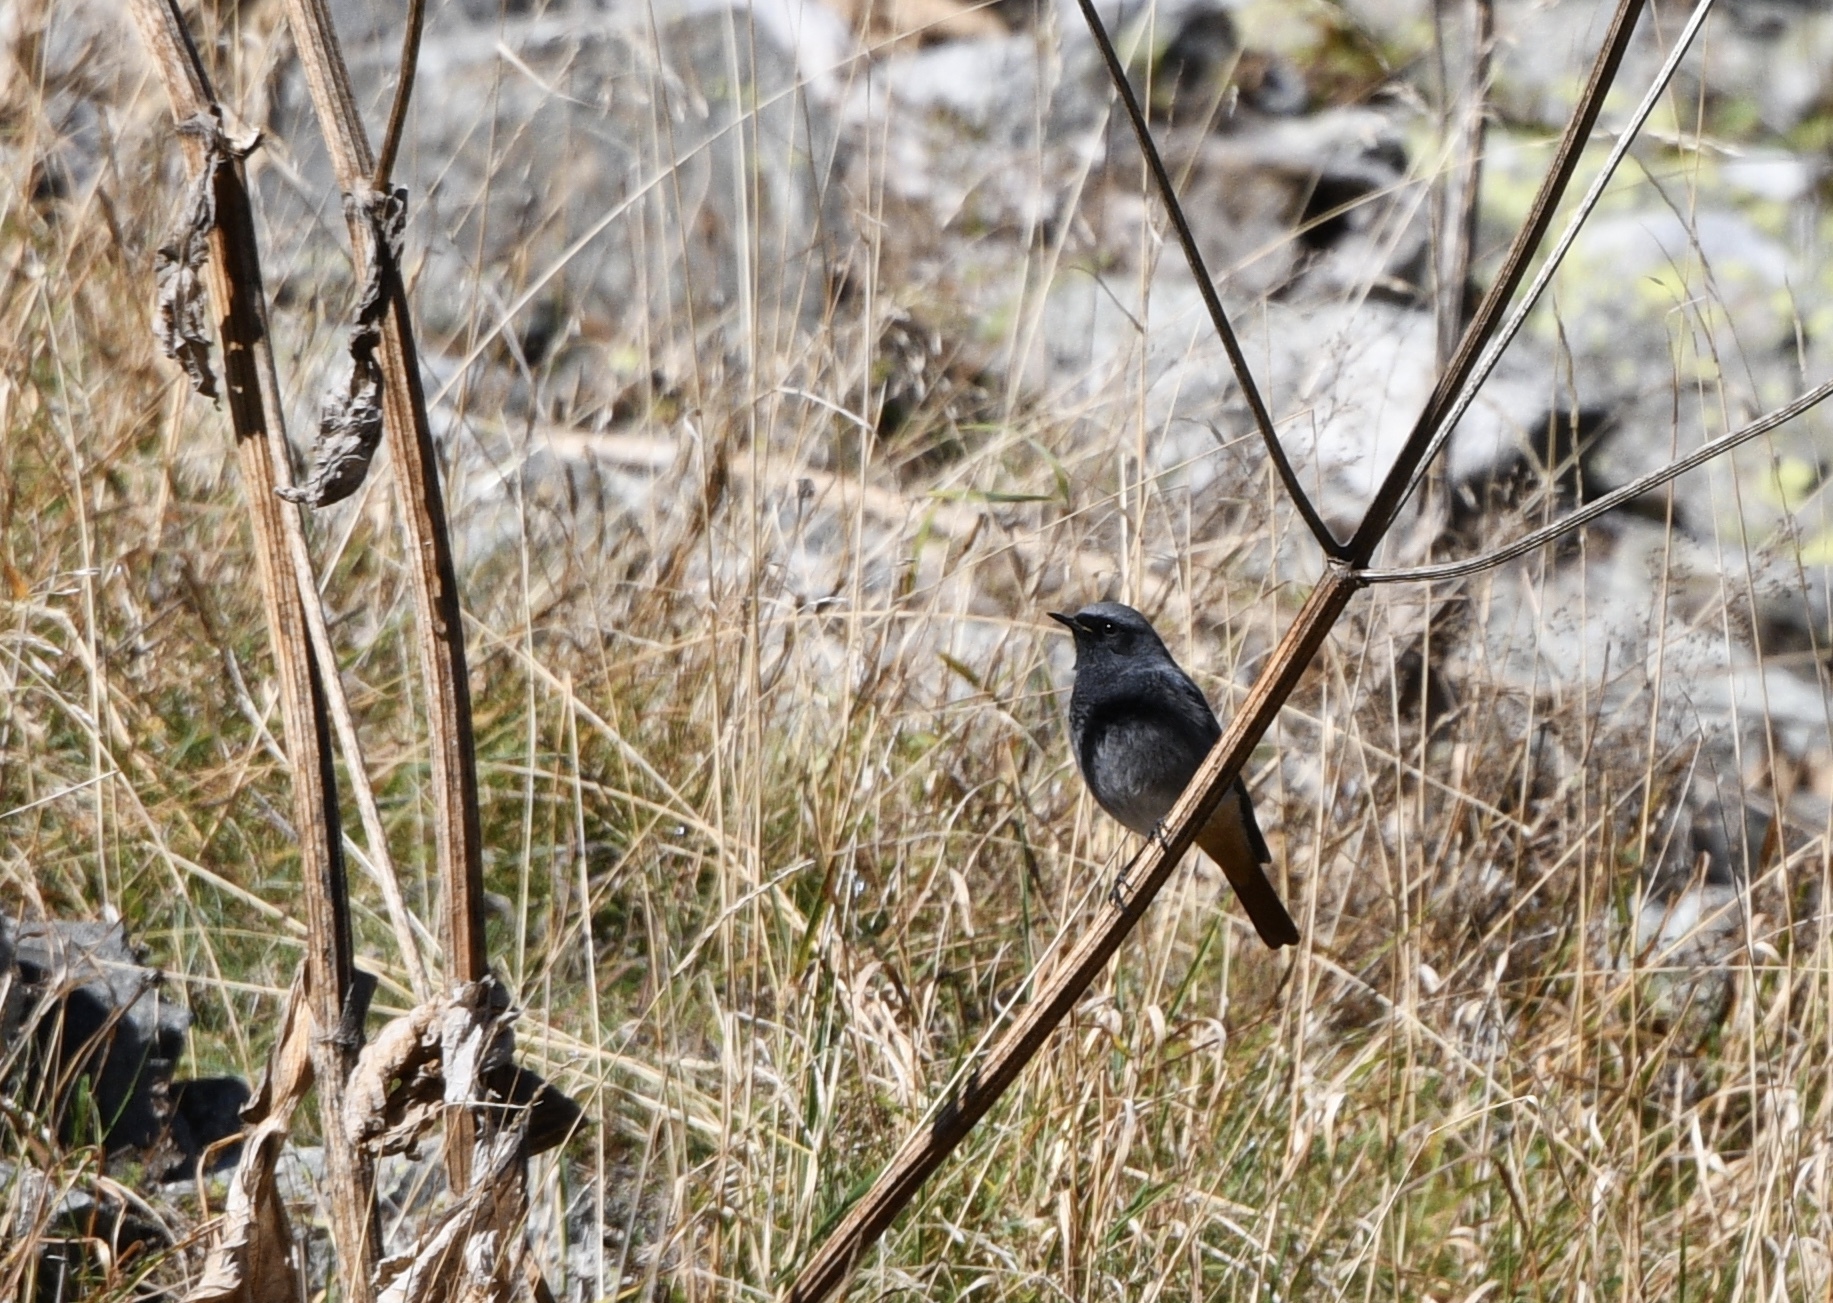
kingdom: Animalia
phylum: Chordata
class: Aves
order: Passeriformes
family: Muscicapidae
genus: Phoenicurus
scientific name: Phoenicurus ochruros
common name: Black redstart
